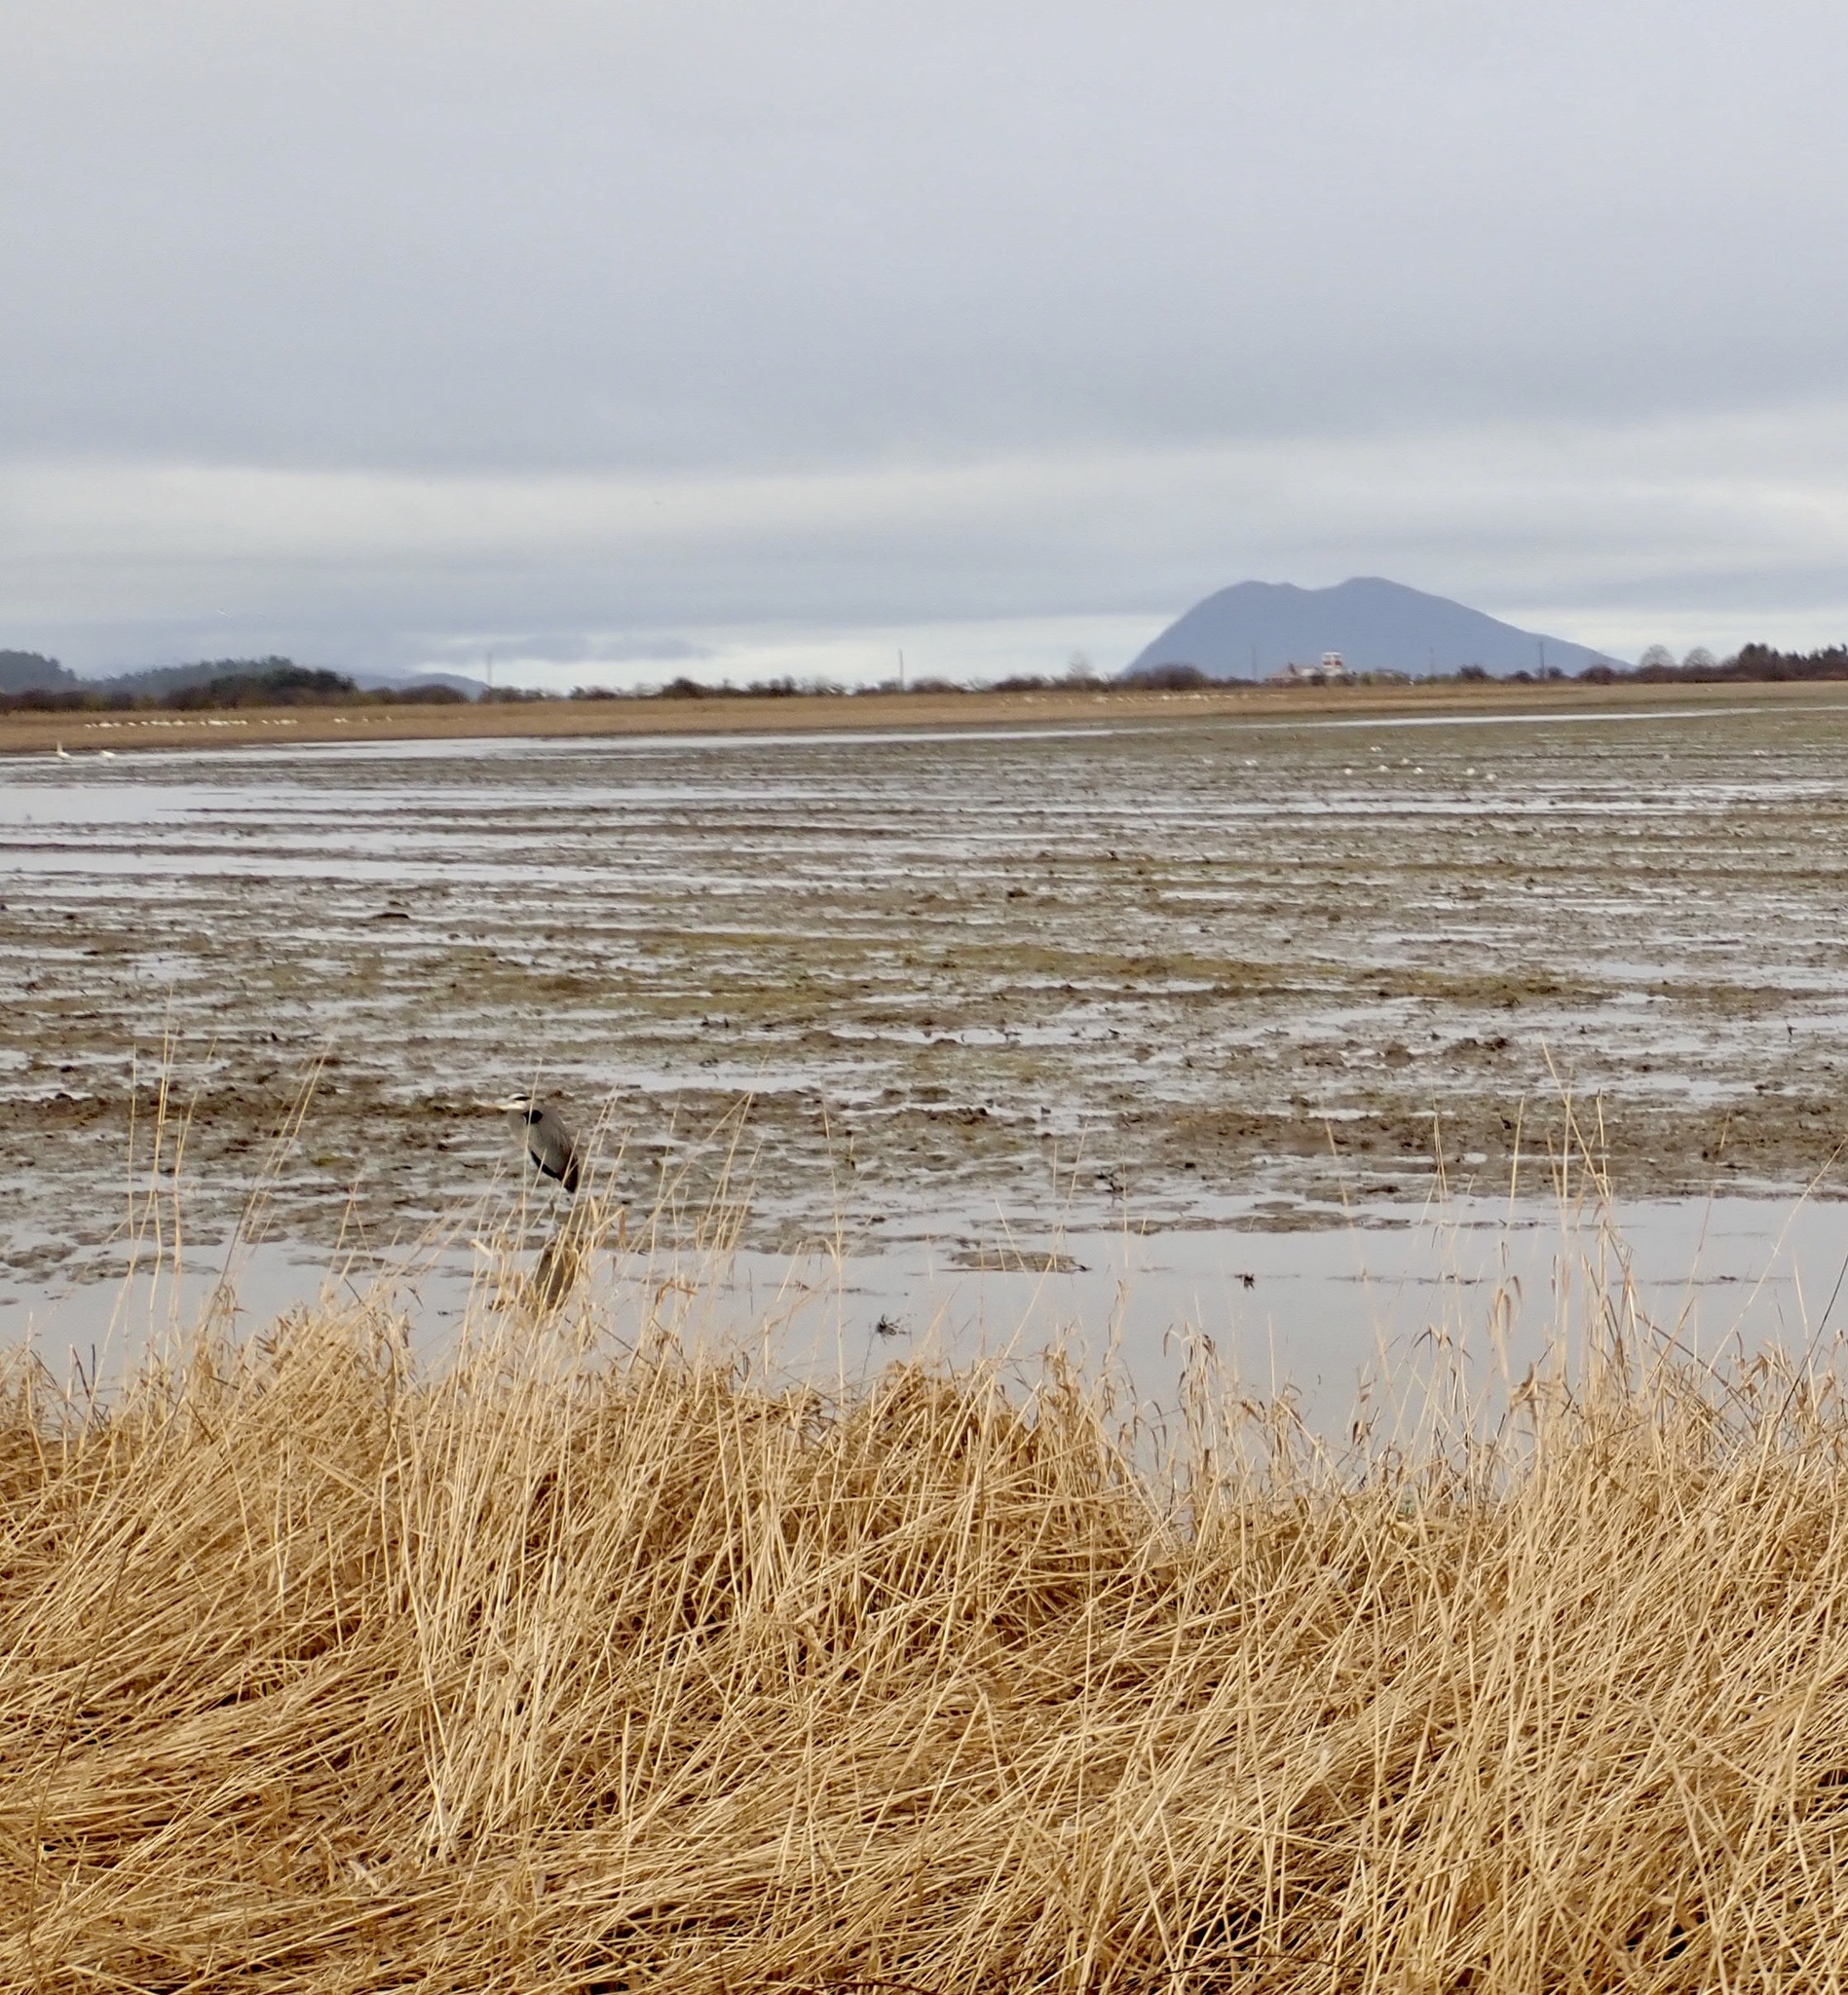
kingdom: Animalia
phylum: Chordata
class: Aves
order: Pelecaniformes
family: Ardeidae
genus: Ardea
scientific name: Ardea herodias
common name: Great blue heron
